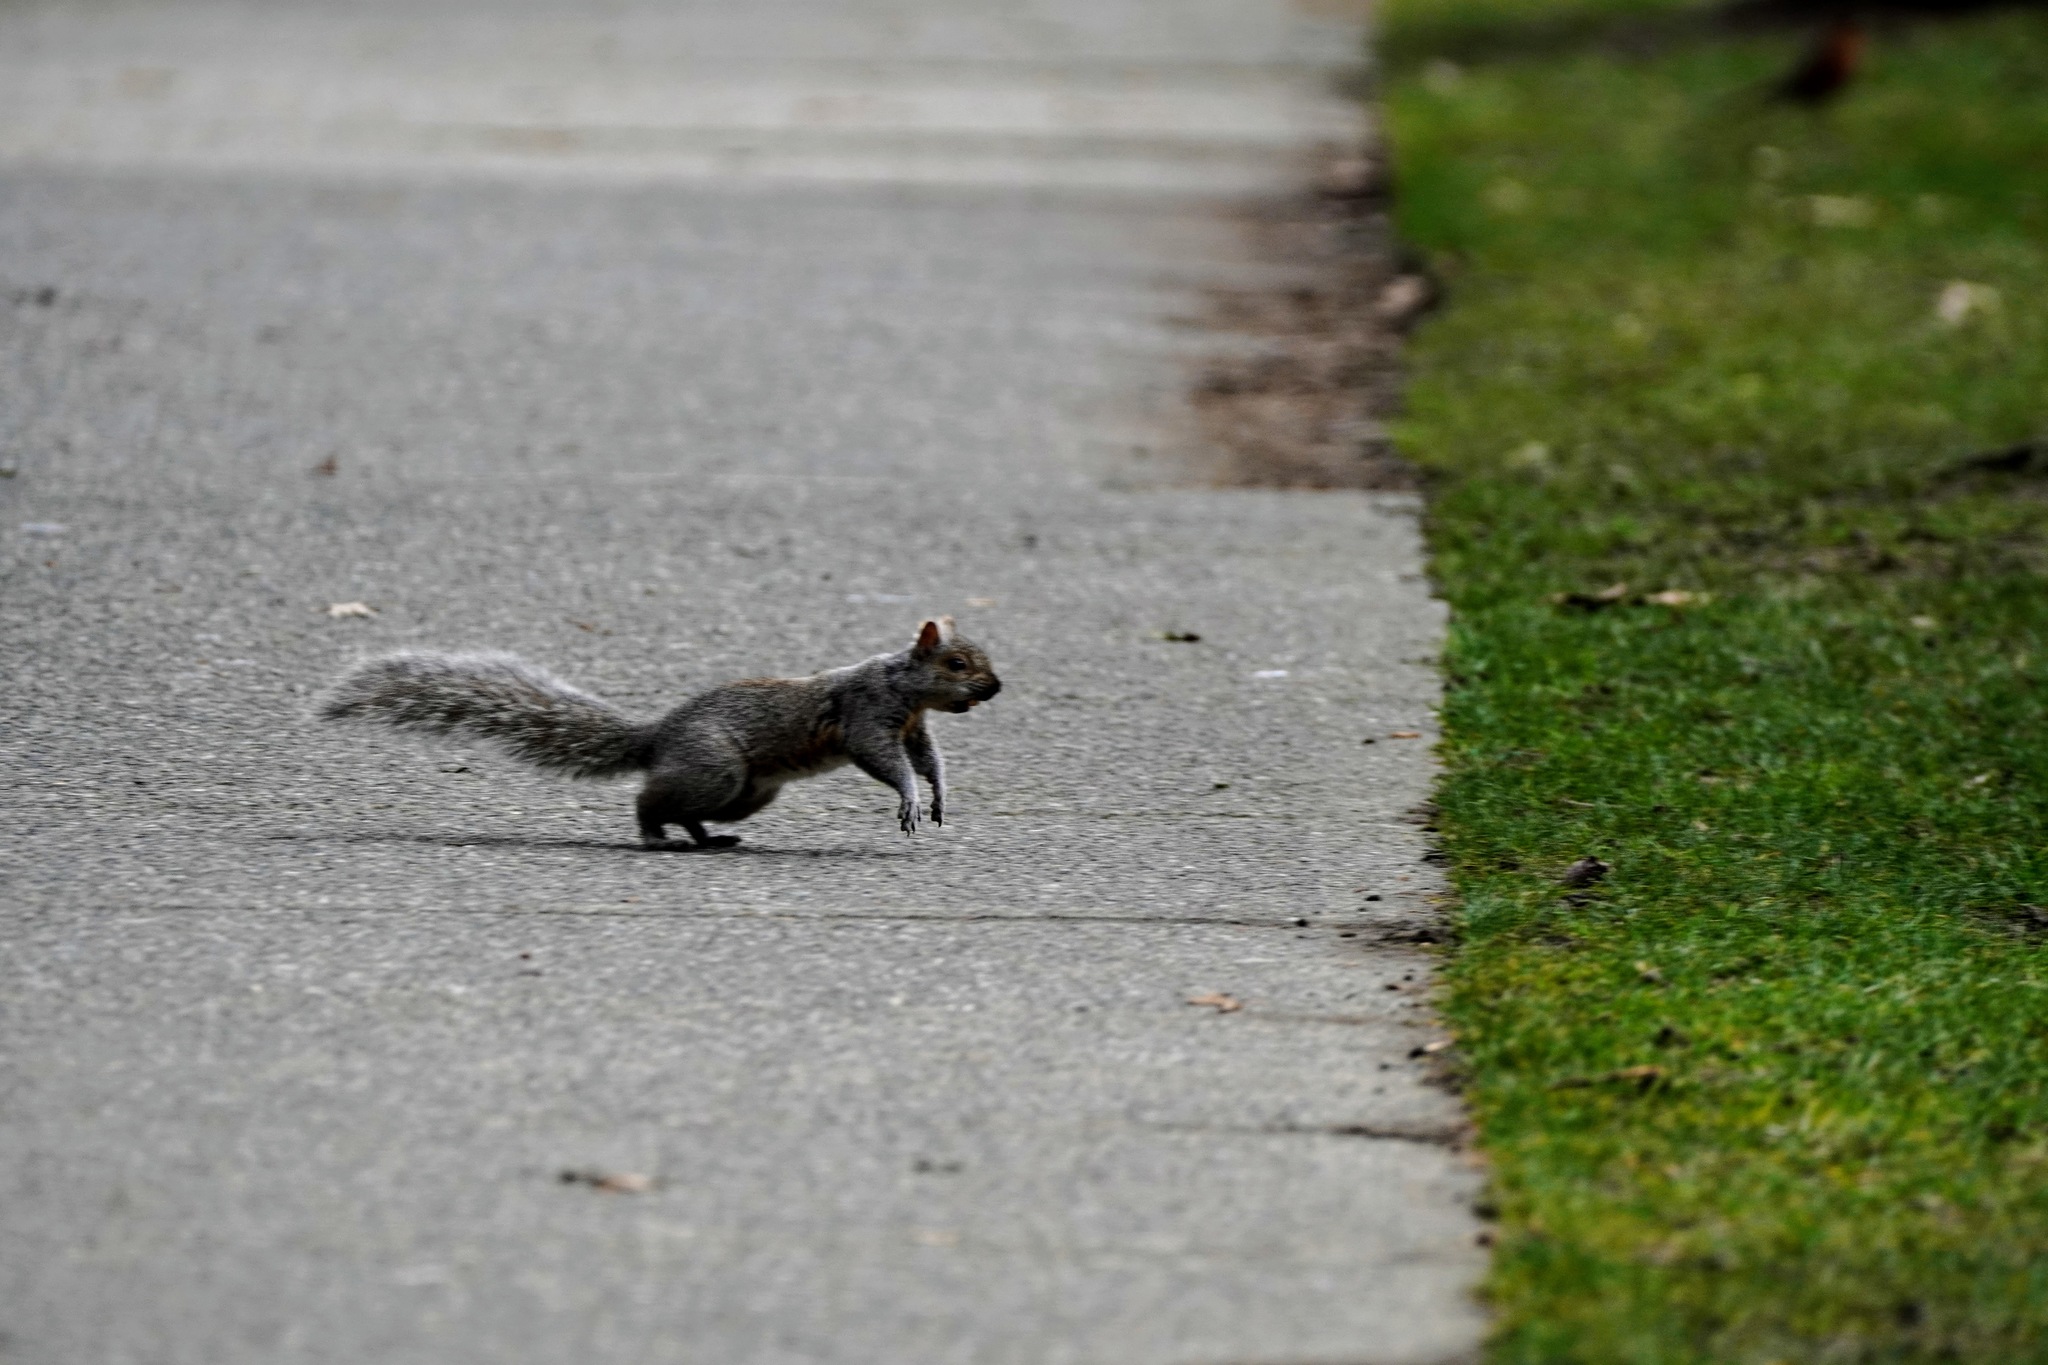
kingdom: Animalia
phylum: Chordata
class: Mammalia
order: Rodentia
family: Sciuridae
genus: Sciurus
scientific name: Sciurus carolinensis
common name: Eastern gray squirrel
